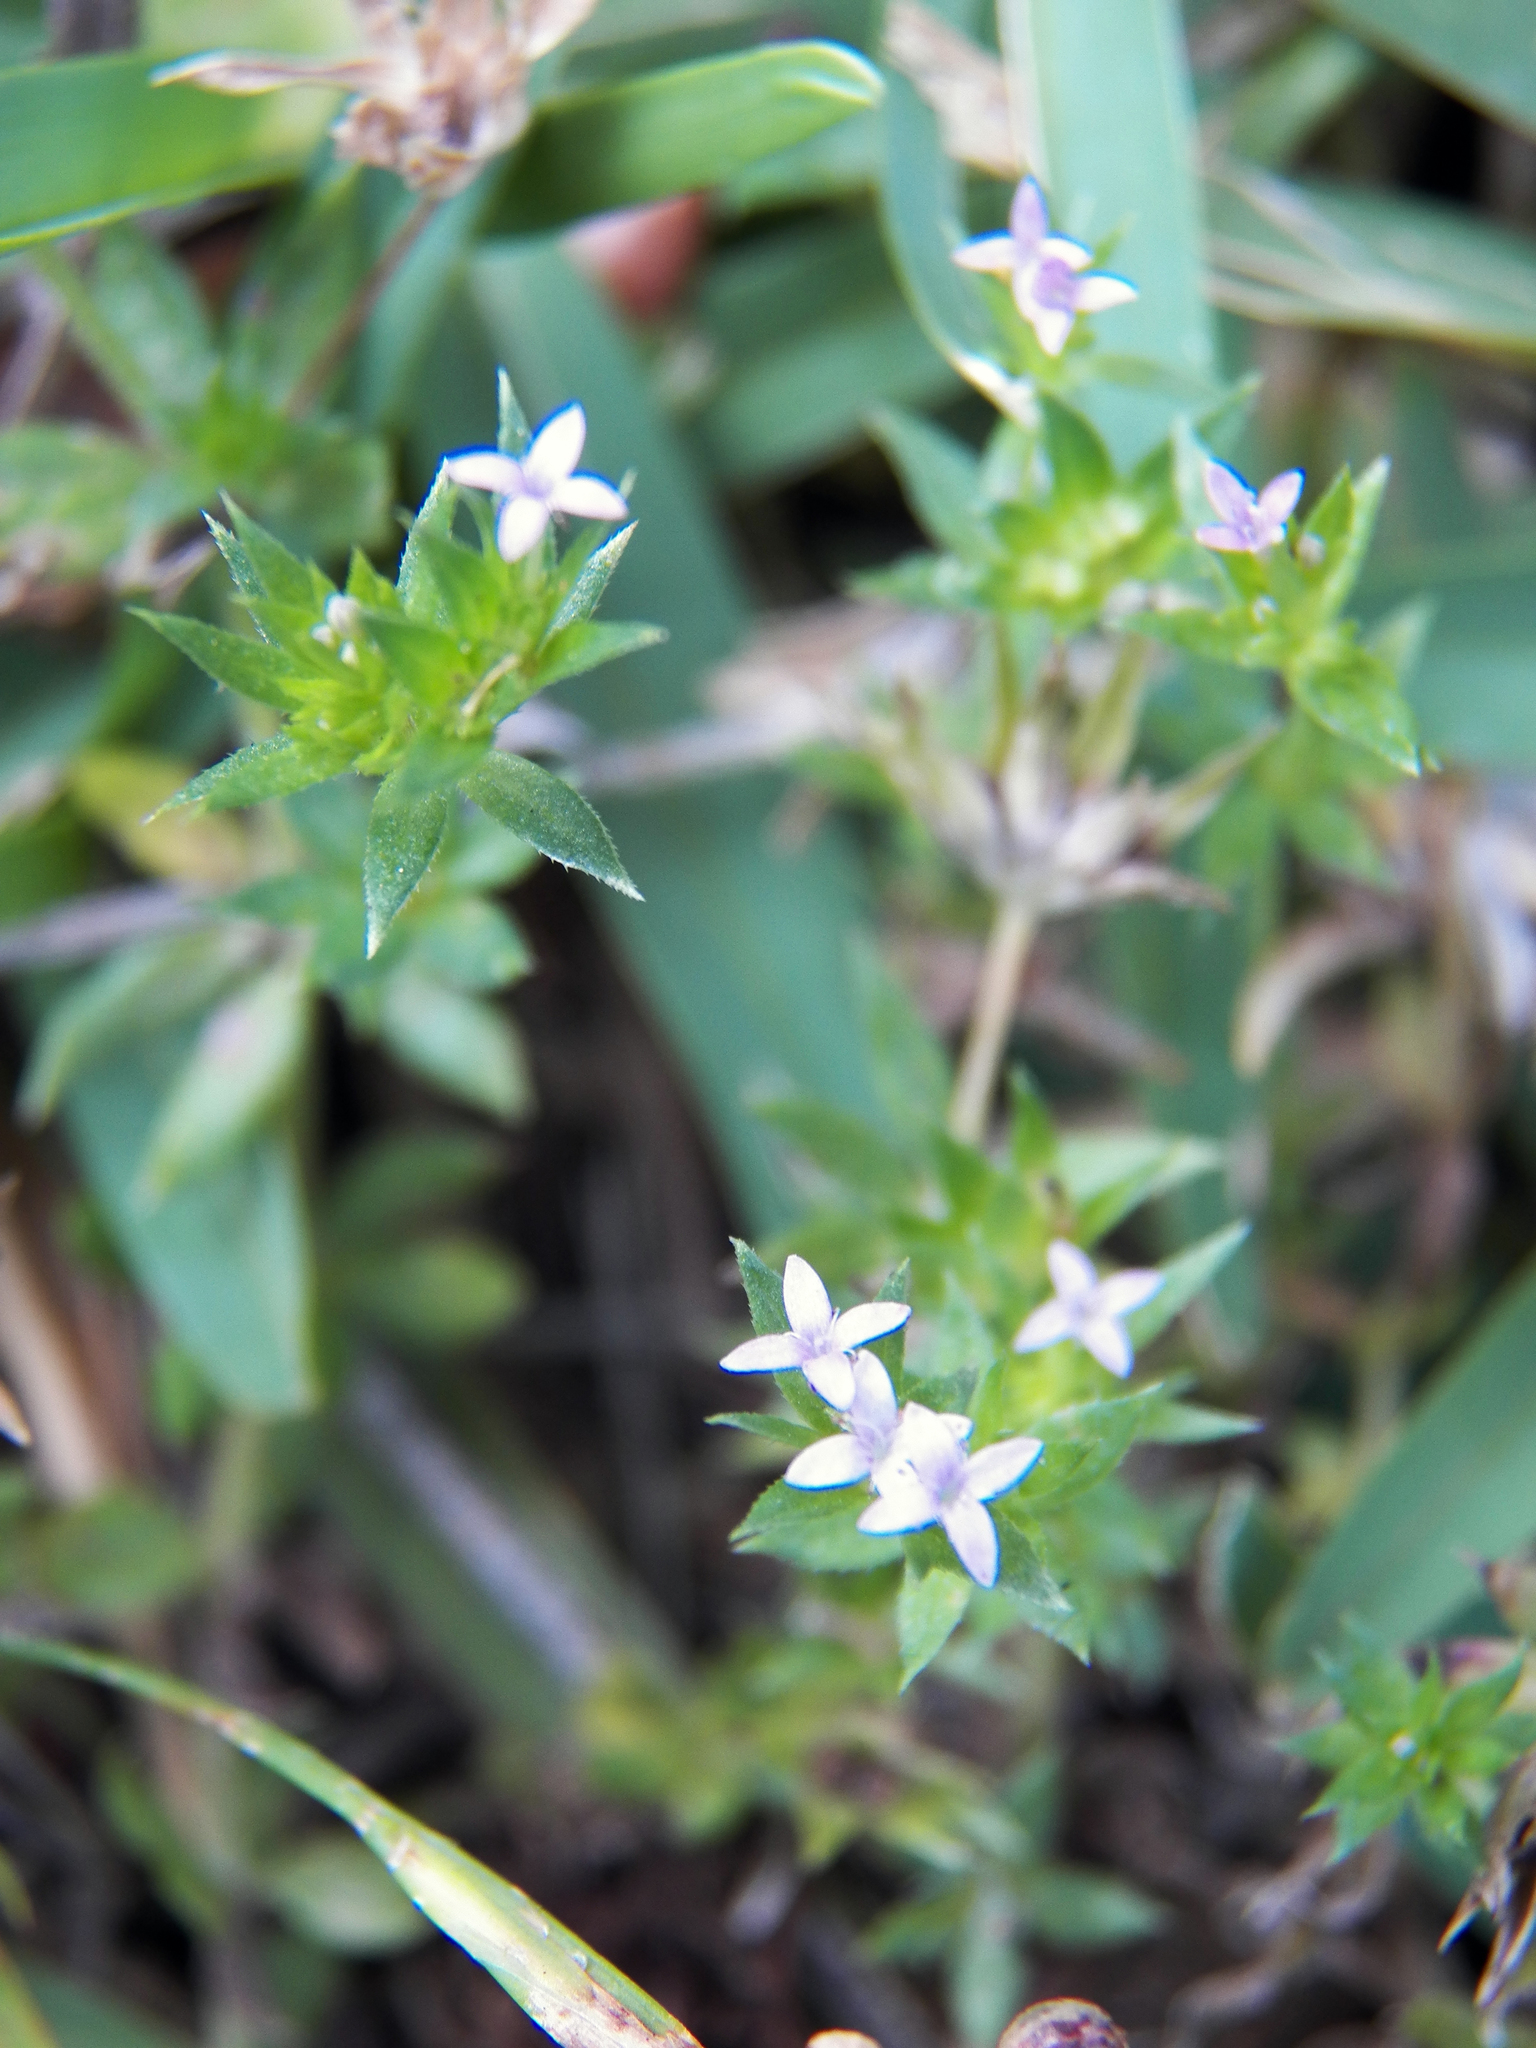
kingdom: Plantae
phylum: Tracheophyta
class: Magnoliopsida
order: Gentianales
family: Rubiaceae
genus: Sherardia
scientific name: Sherardia arvensis
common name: Field madder
